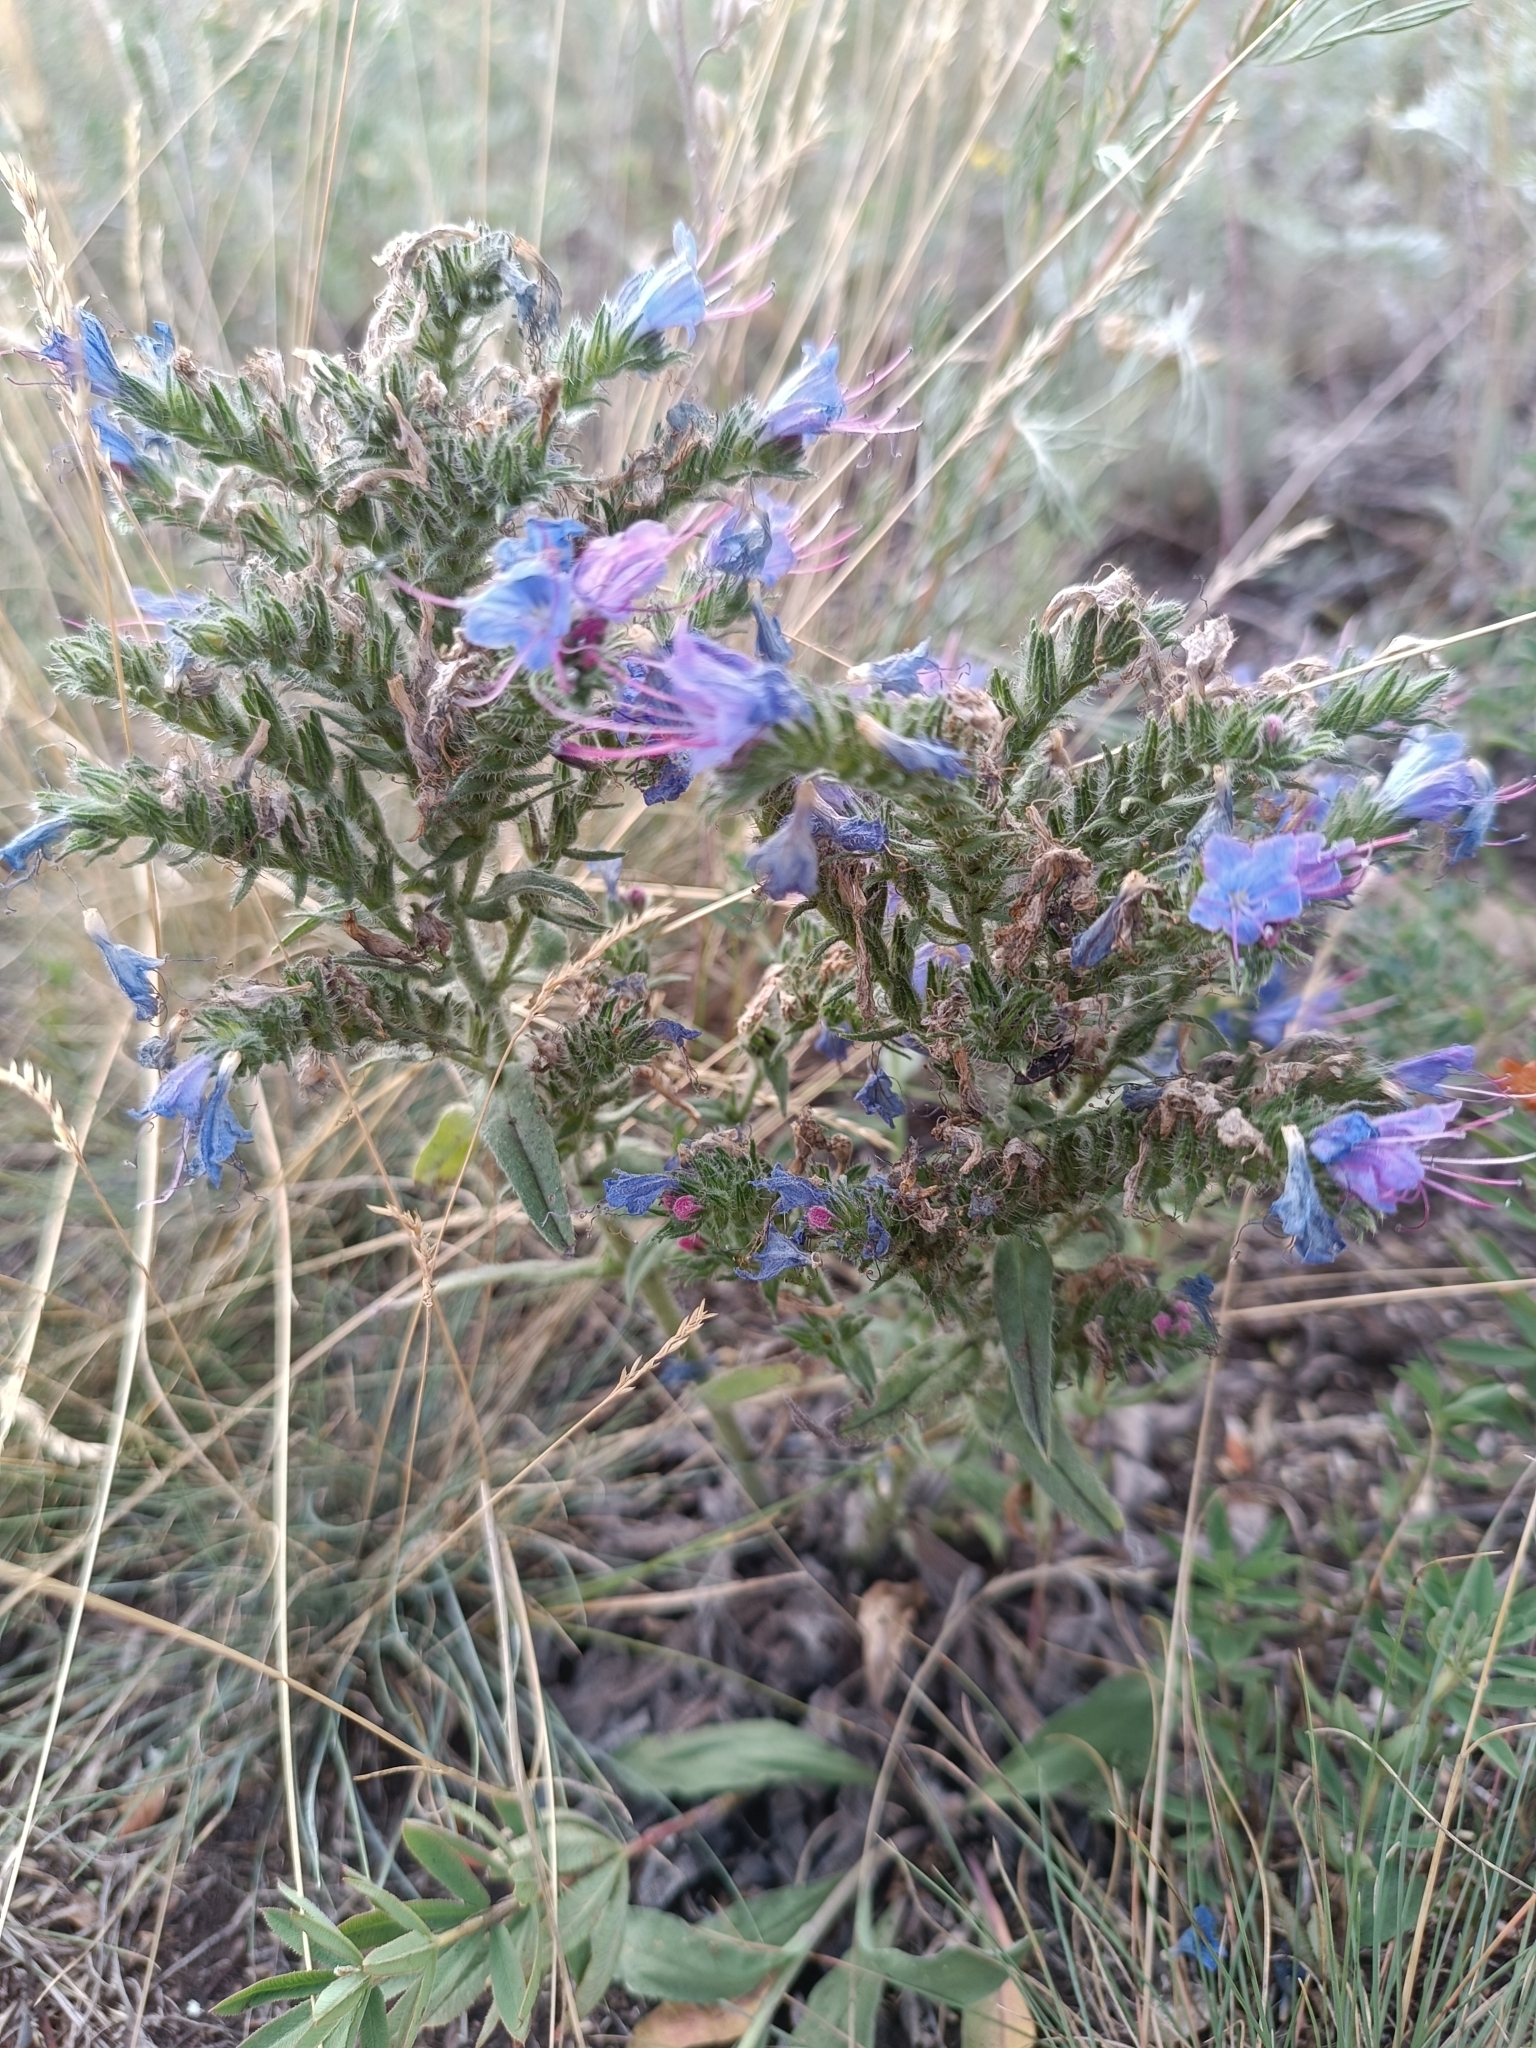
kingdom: Plantae
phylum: Tracheophyta
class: Magnoliopsida
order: Boraginales
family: Boraginaceae
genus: Echium
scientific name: Echium vulgare
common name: Common viper's bugloss
